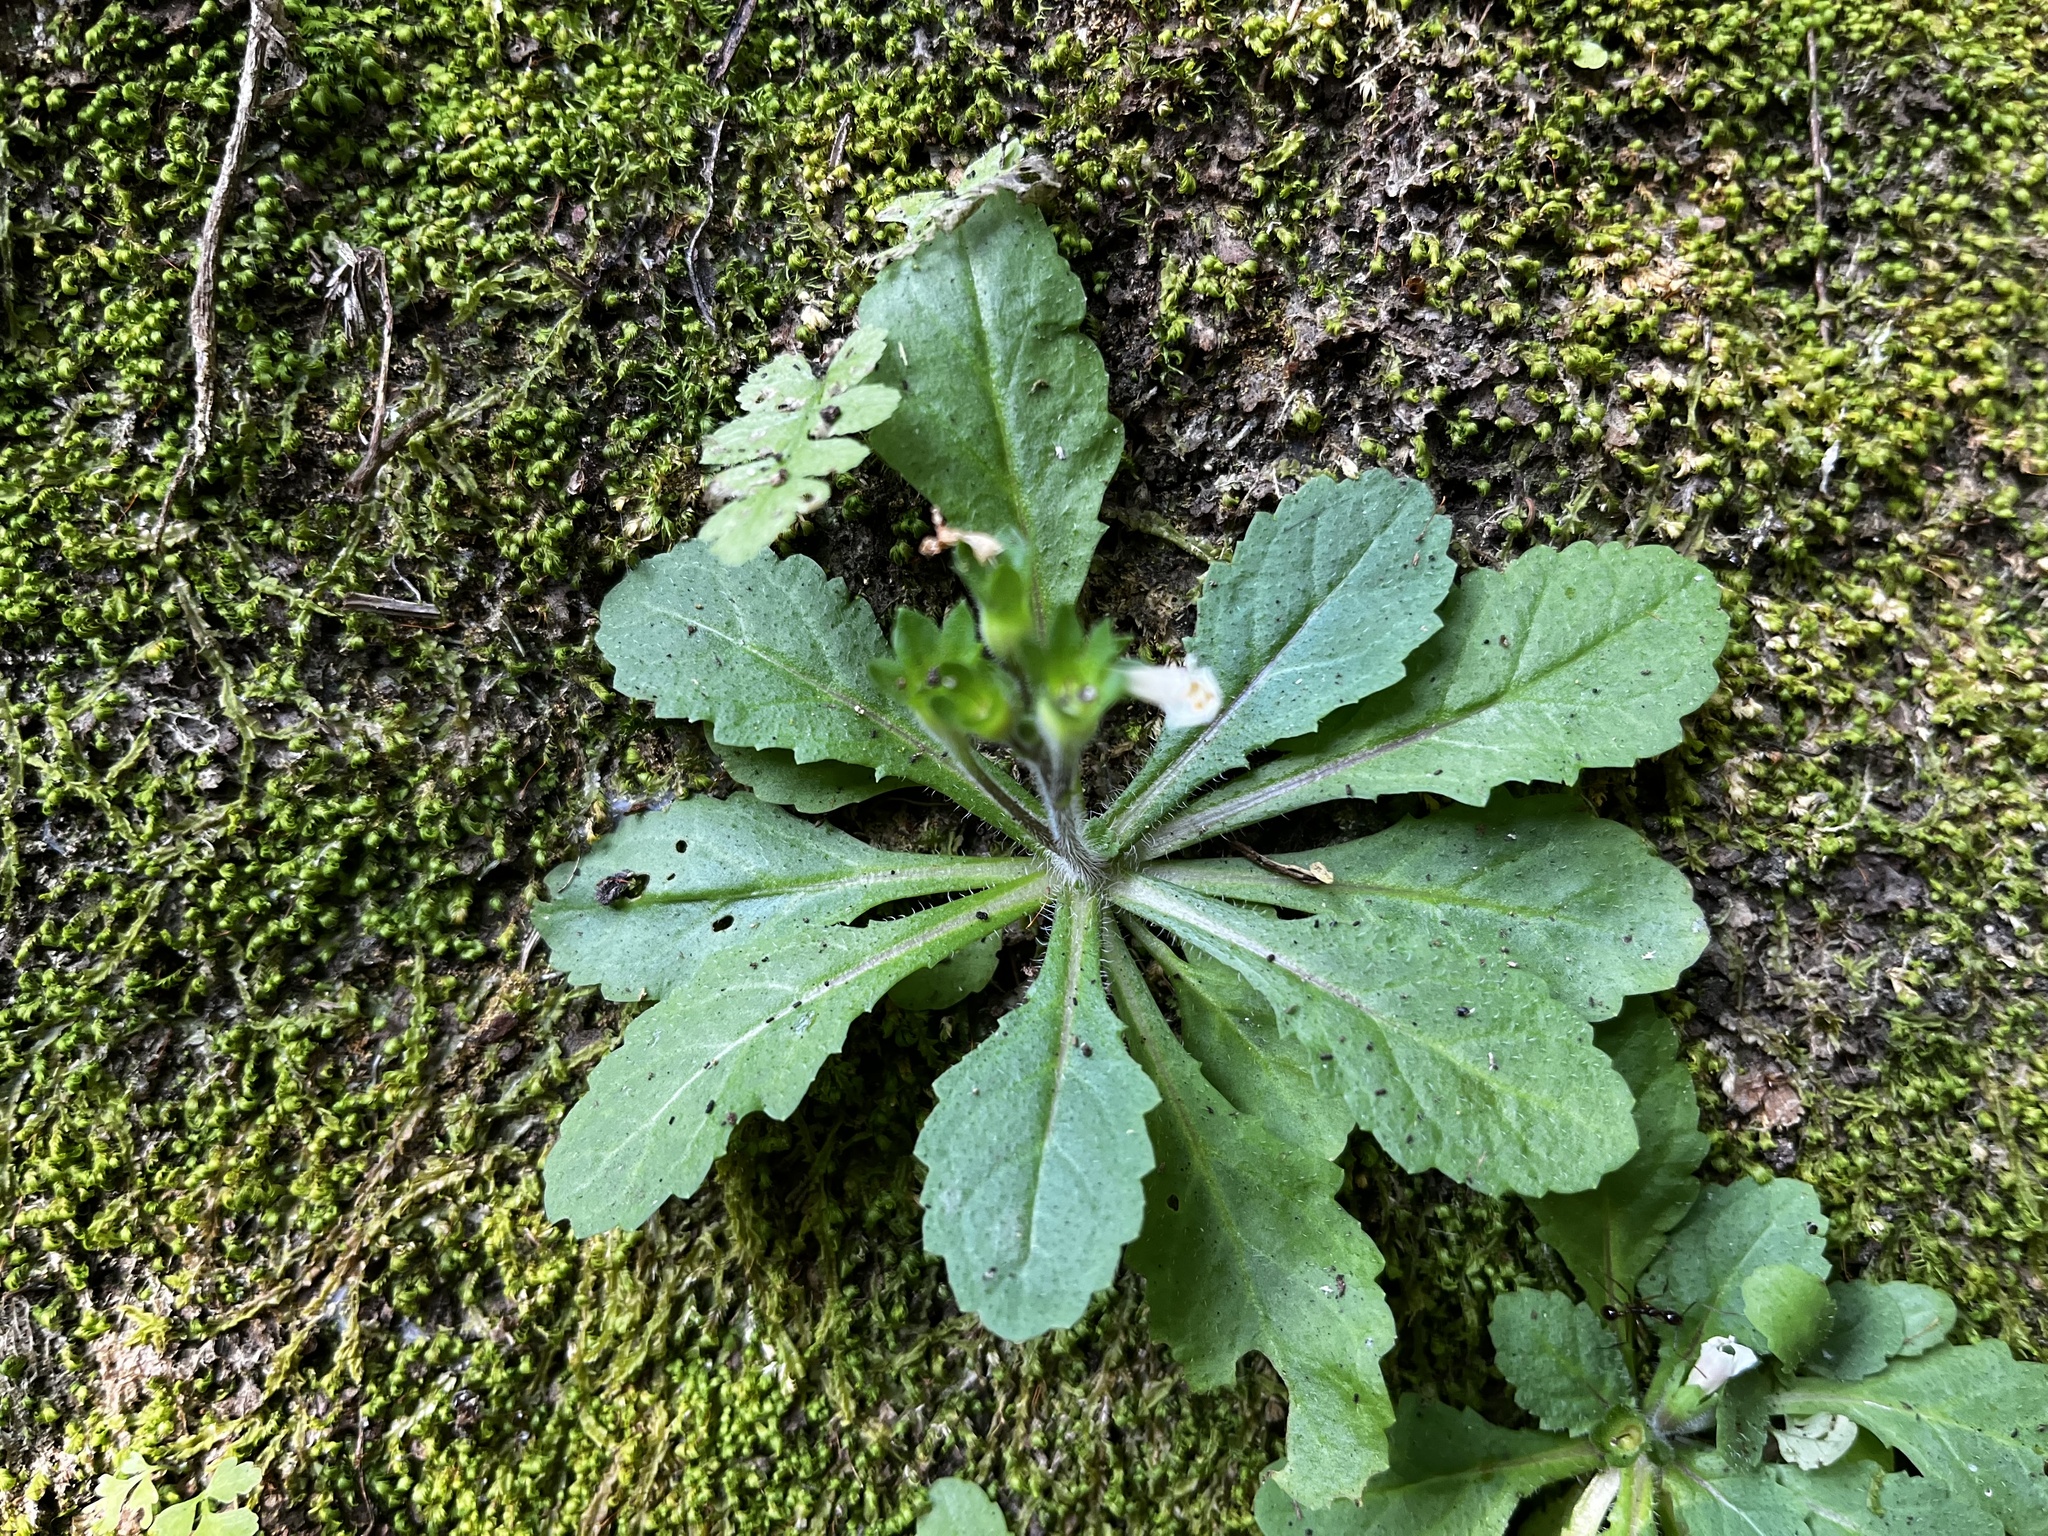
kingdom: Plantae
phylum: Tracheophyta
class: Magnoliopsida
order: Lamiales
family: Mazaceae
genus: Mazus
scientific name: Mazus goodeniifolius
